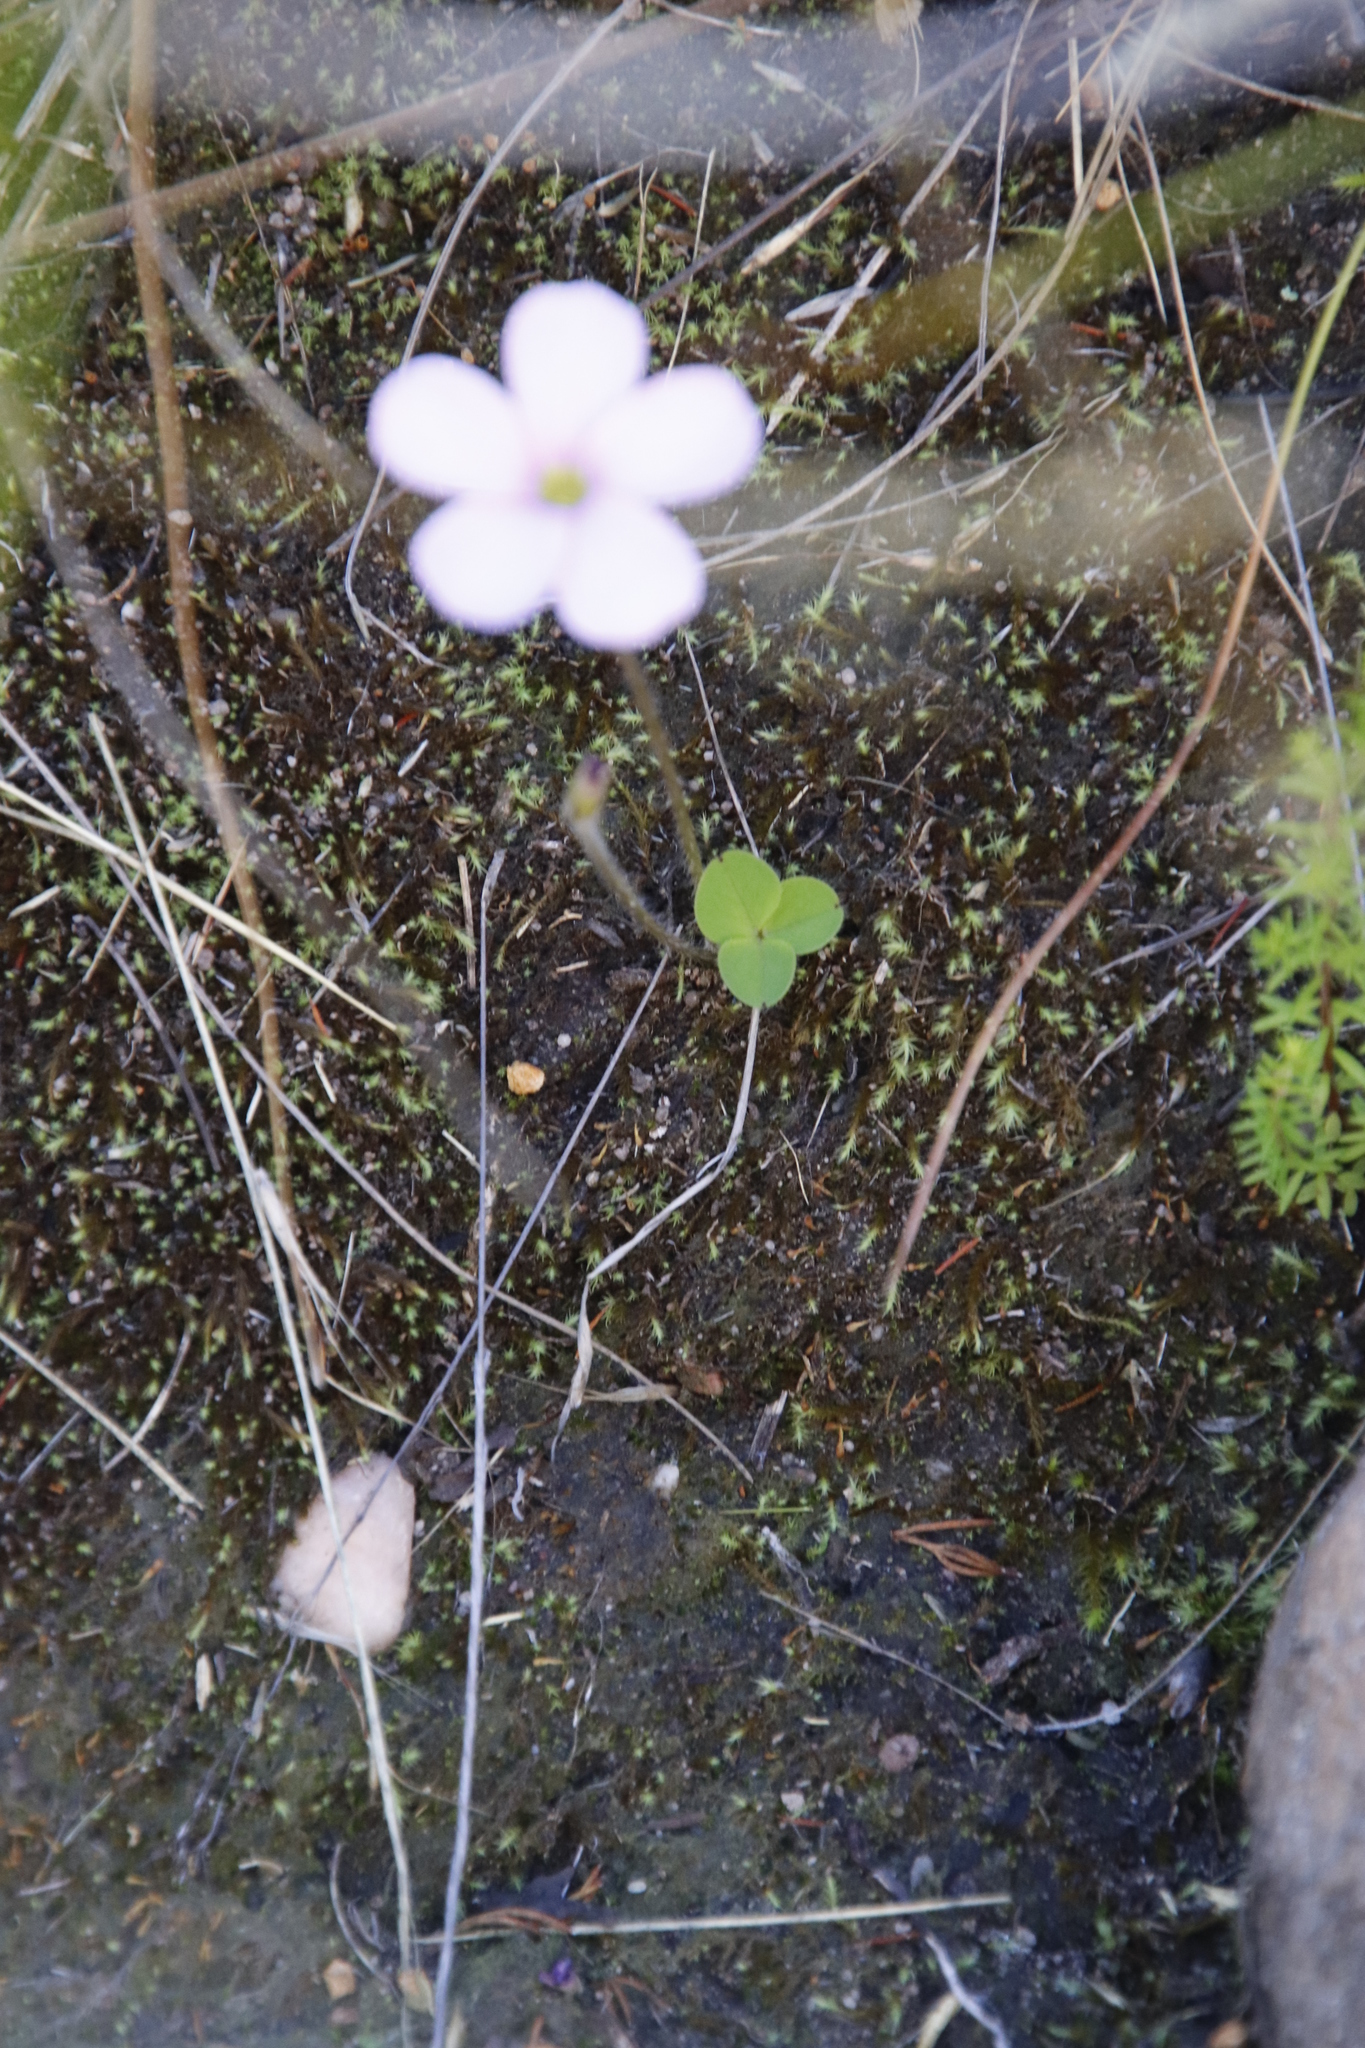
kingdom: Plantae
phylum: Tracheophyta
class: Magnoliopsida
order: Oxalidales
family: Oxalidaceae
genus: Oxalis
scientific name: Oxalis eckloniana
